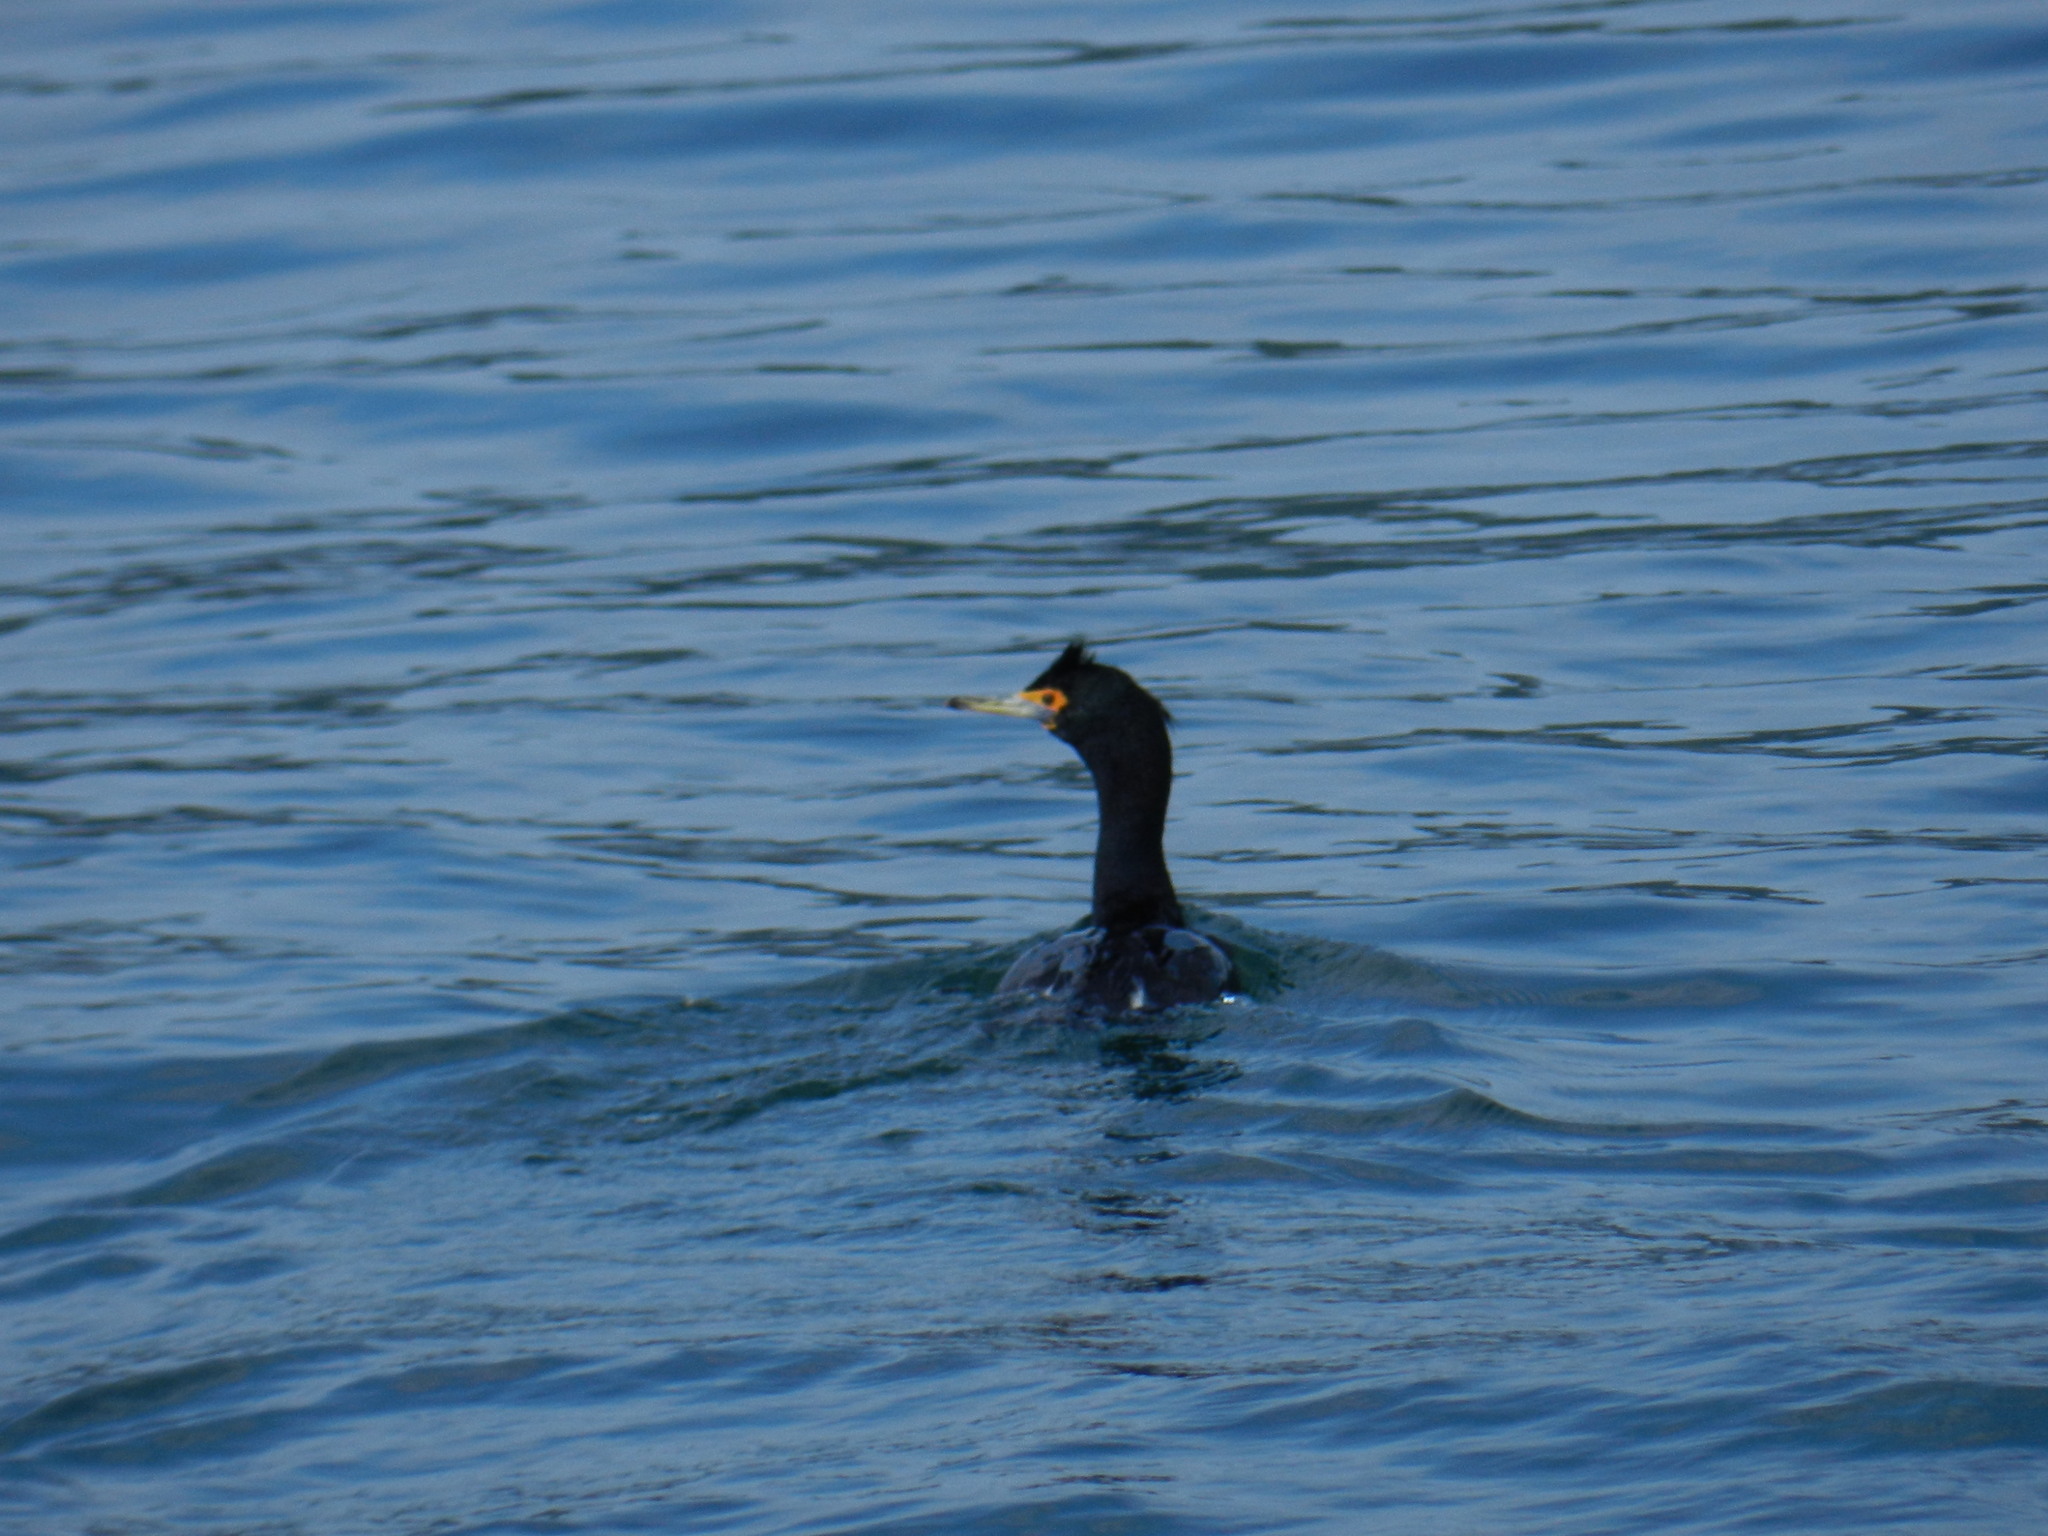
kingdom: Animalia
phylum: Chordata
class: Aves
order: Suliformes
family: Phalacrocoracidae
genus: Phalacrocorax
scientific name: Phalacrocorax urile
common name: Red-faced cormorant
